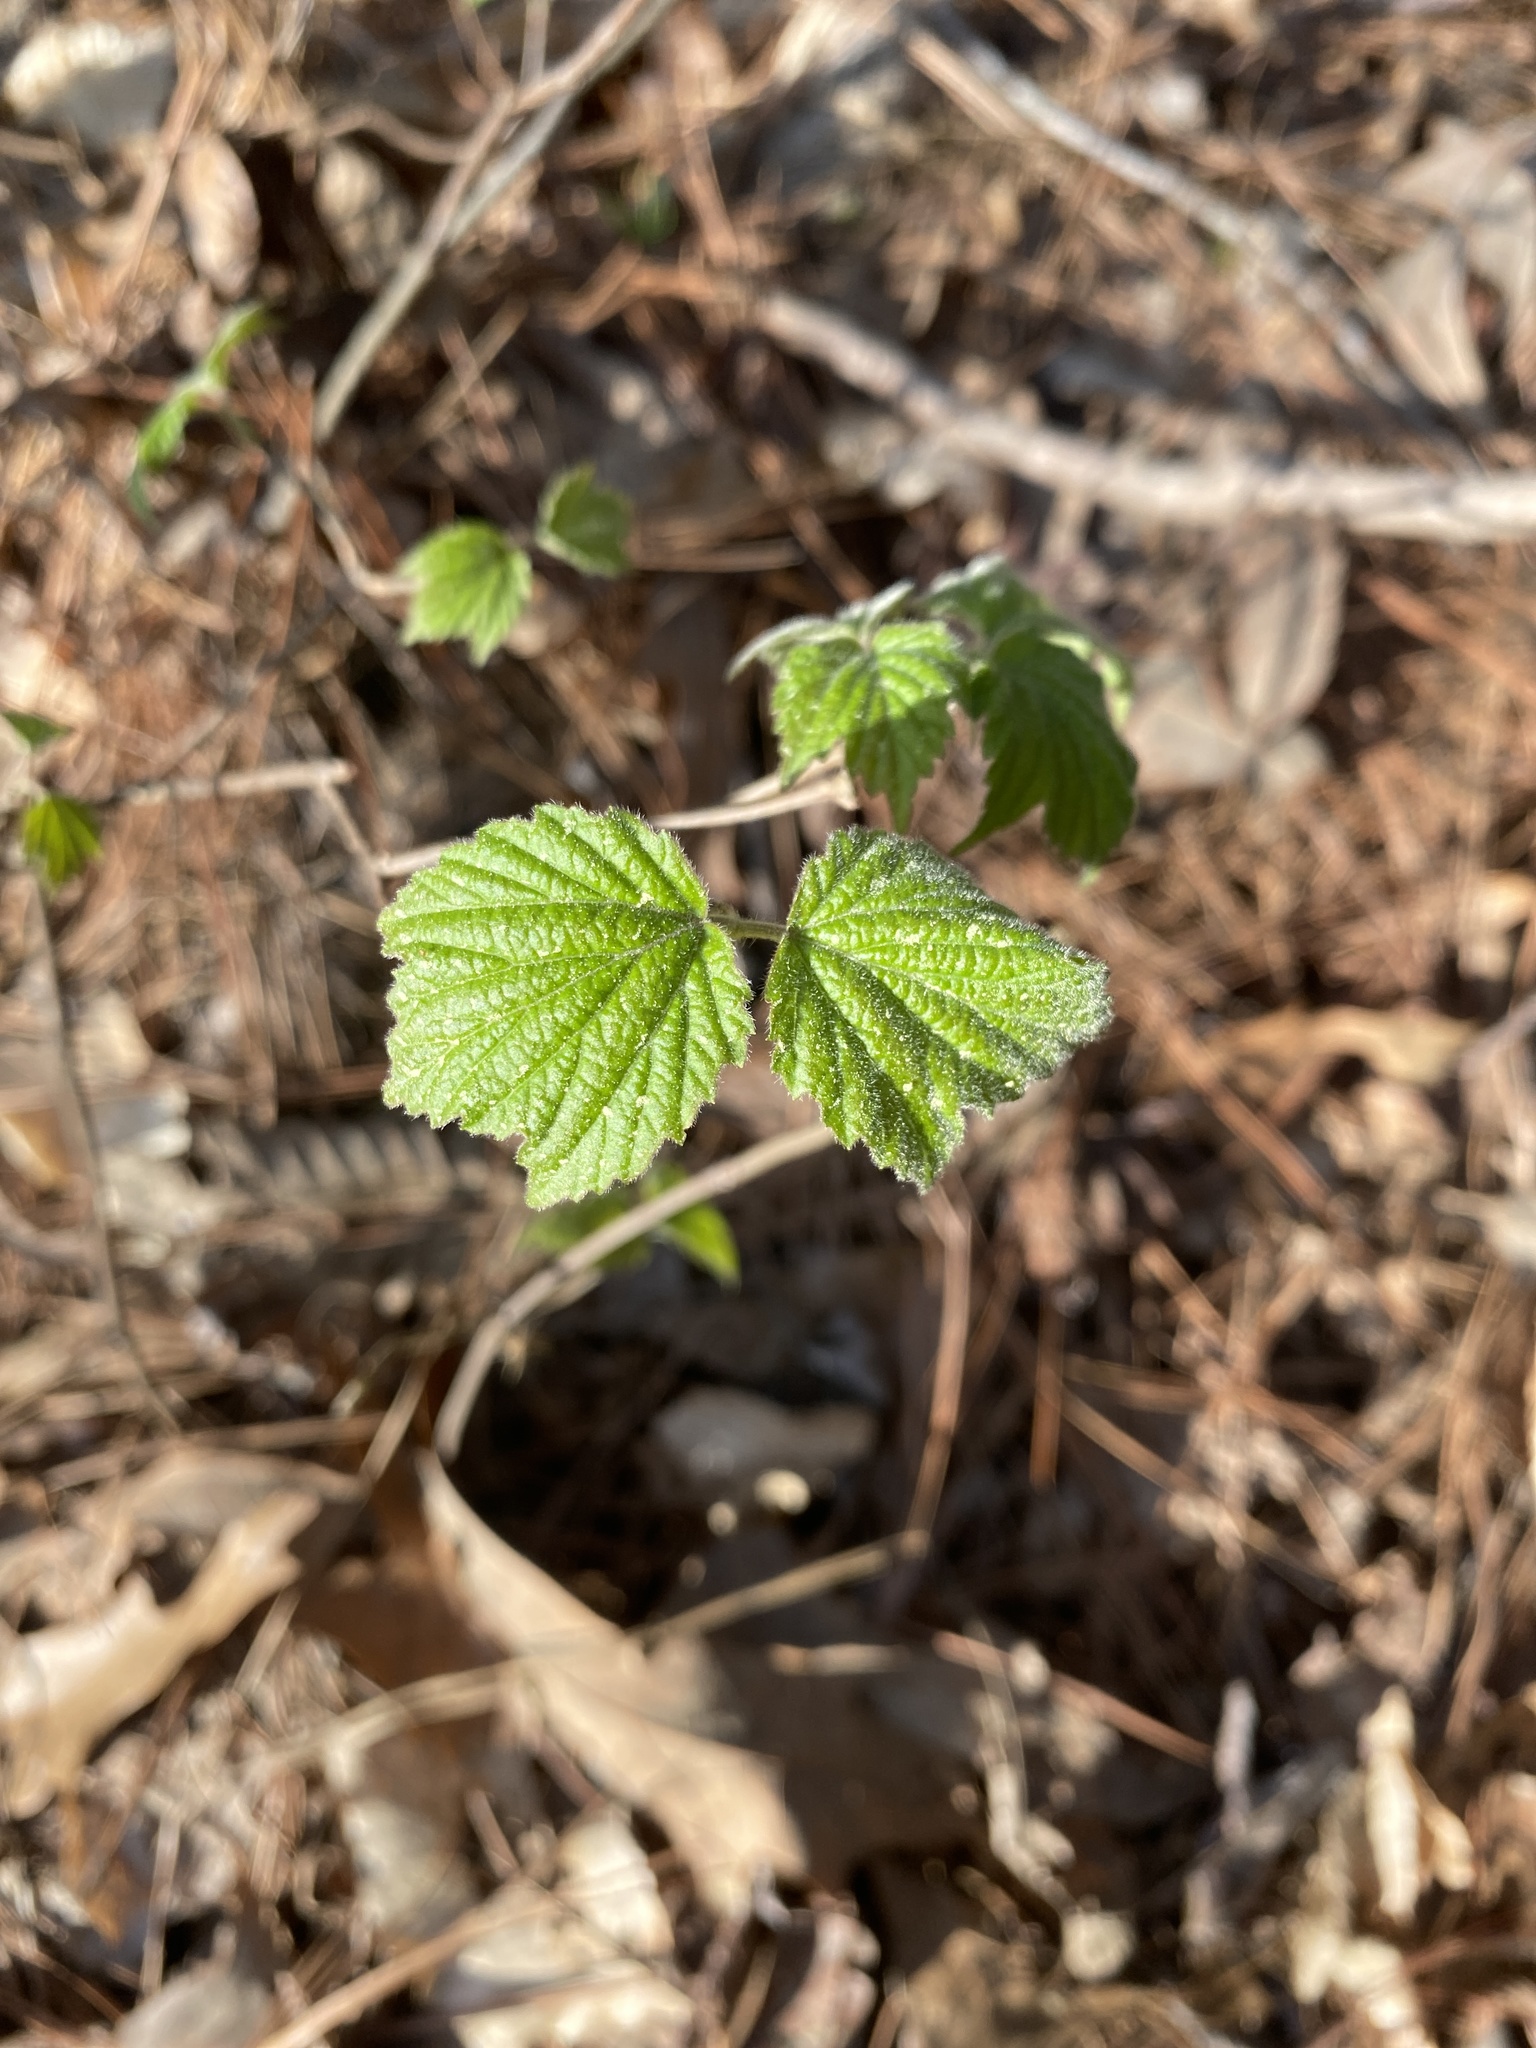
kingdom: Plantae
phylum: Tracheophyta
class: Magnoliopsida
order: Dipsacales
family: Viburnaceae
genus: Viburnum
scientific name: Viburnum acerifolium
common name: Dockmackie
